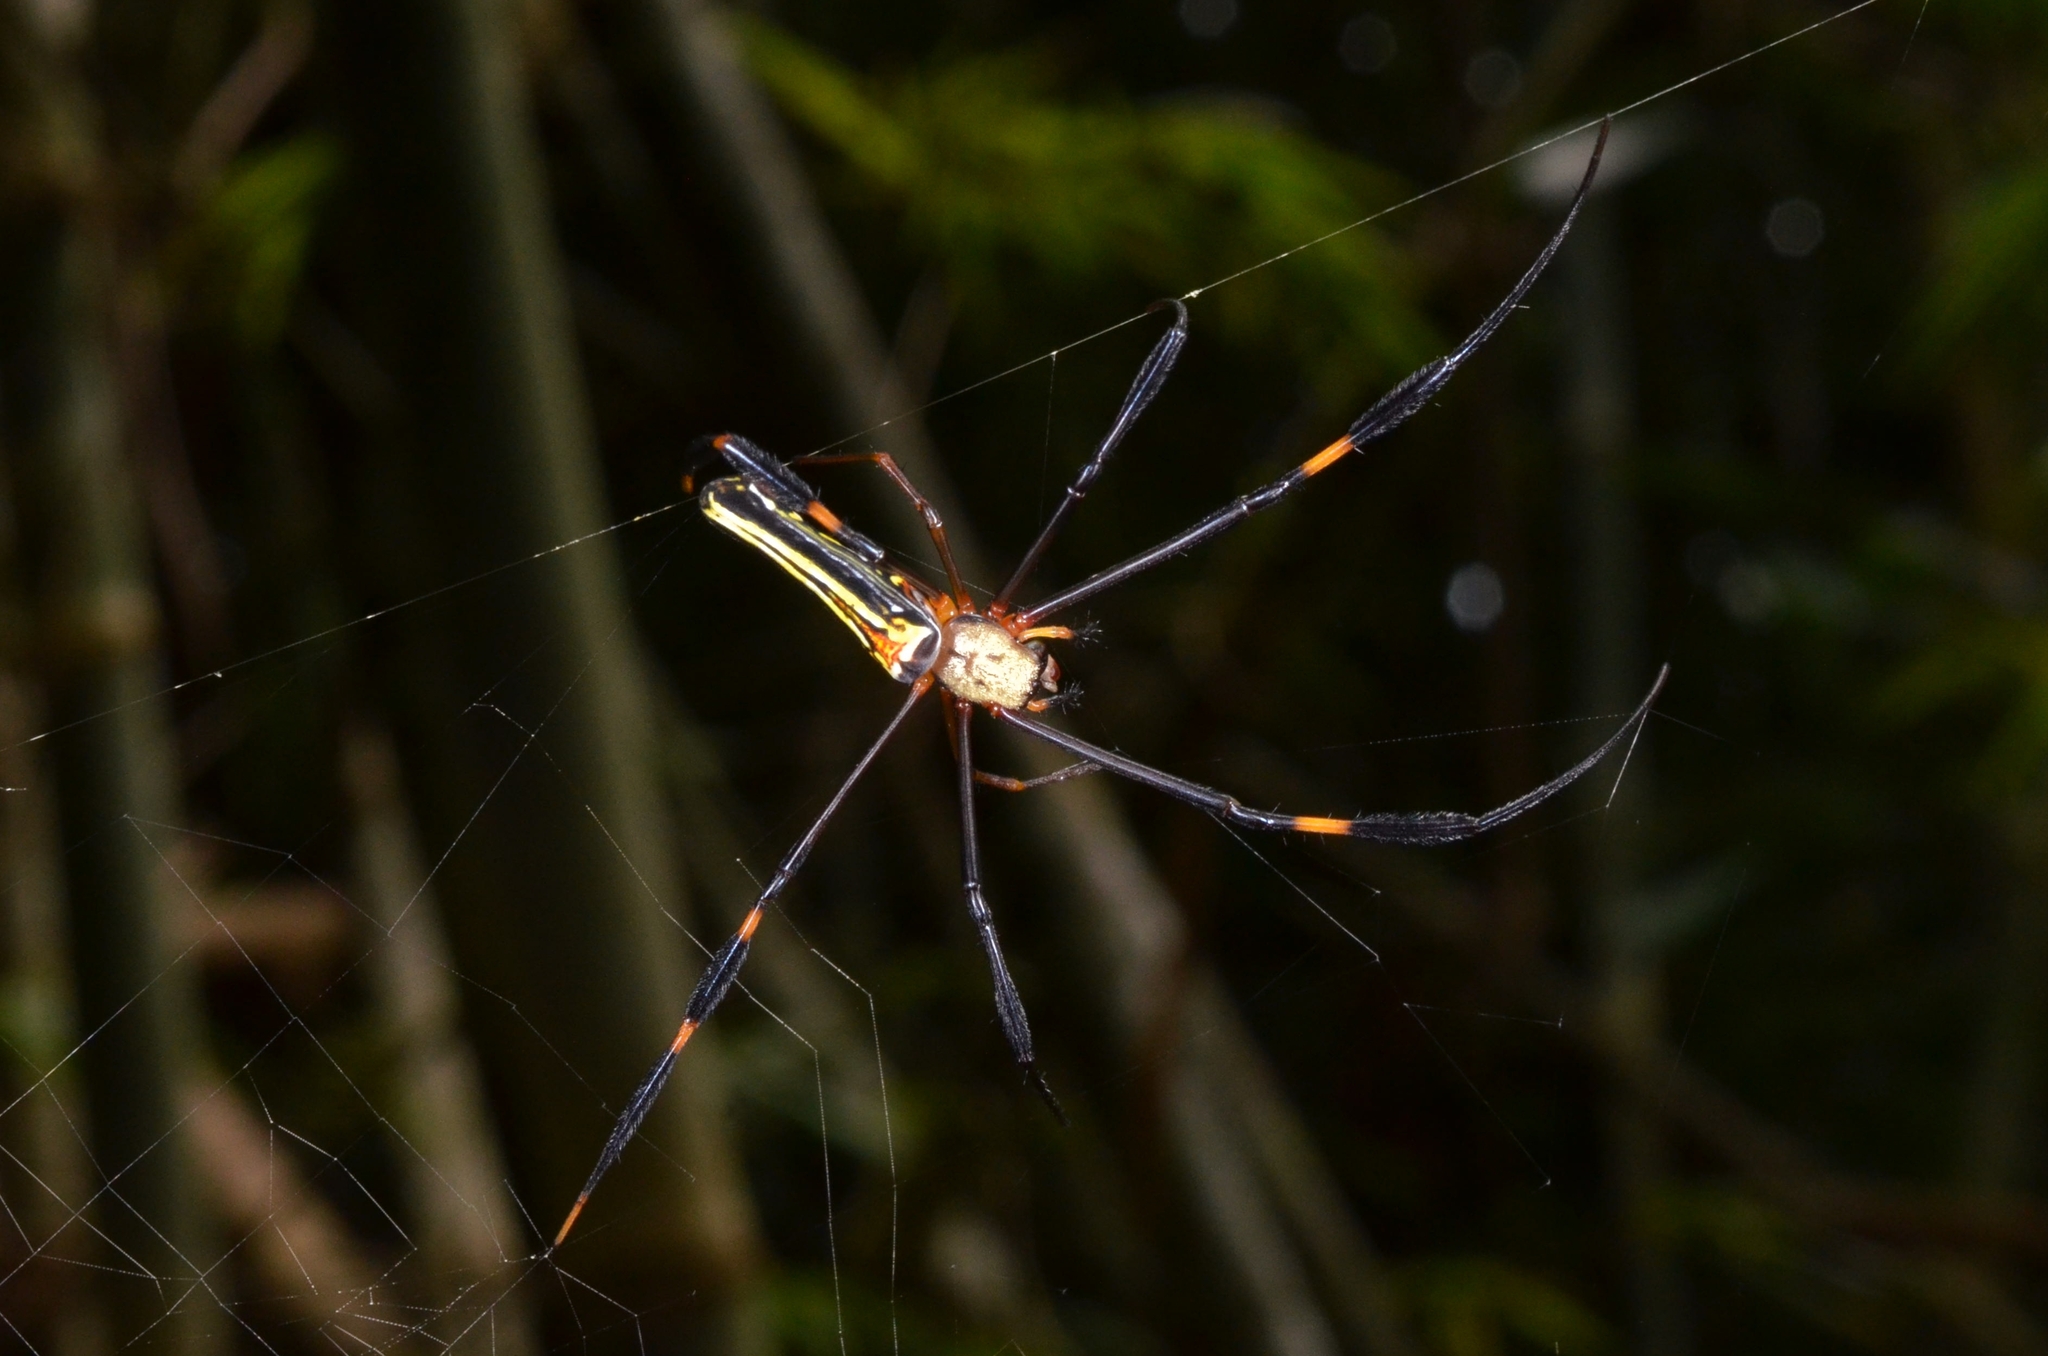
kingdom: Animalia
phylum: Arthropoda
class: Arachnida
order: Araneae
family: Araneidae
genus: Nephila
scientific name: Nephila pilipes
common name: Giant golden orb weaver
